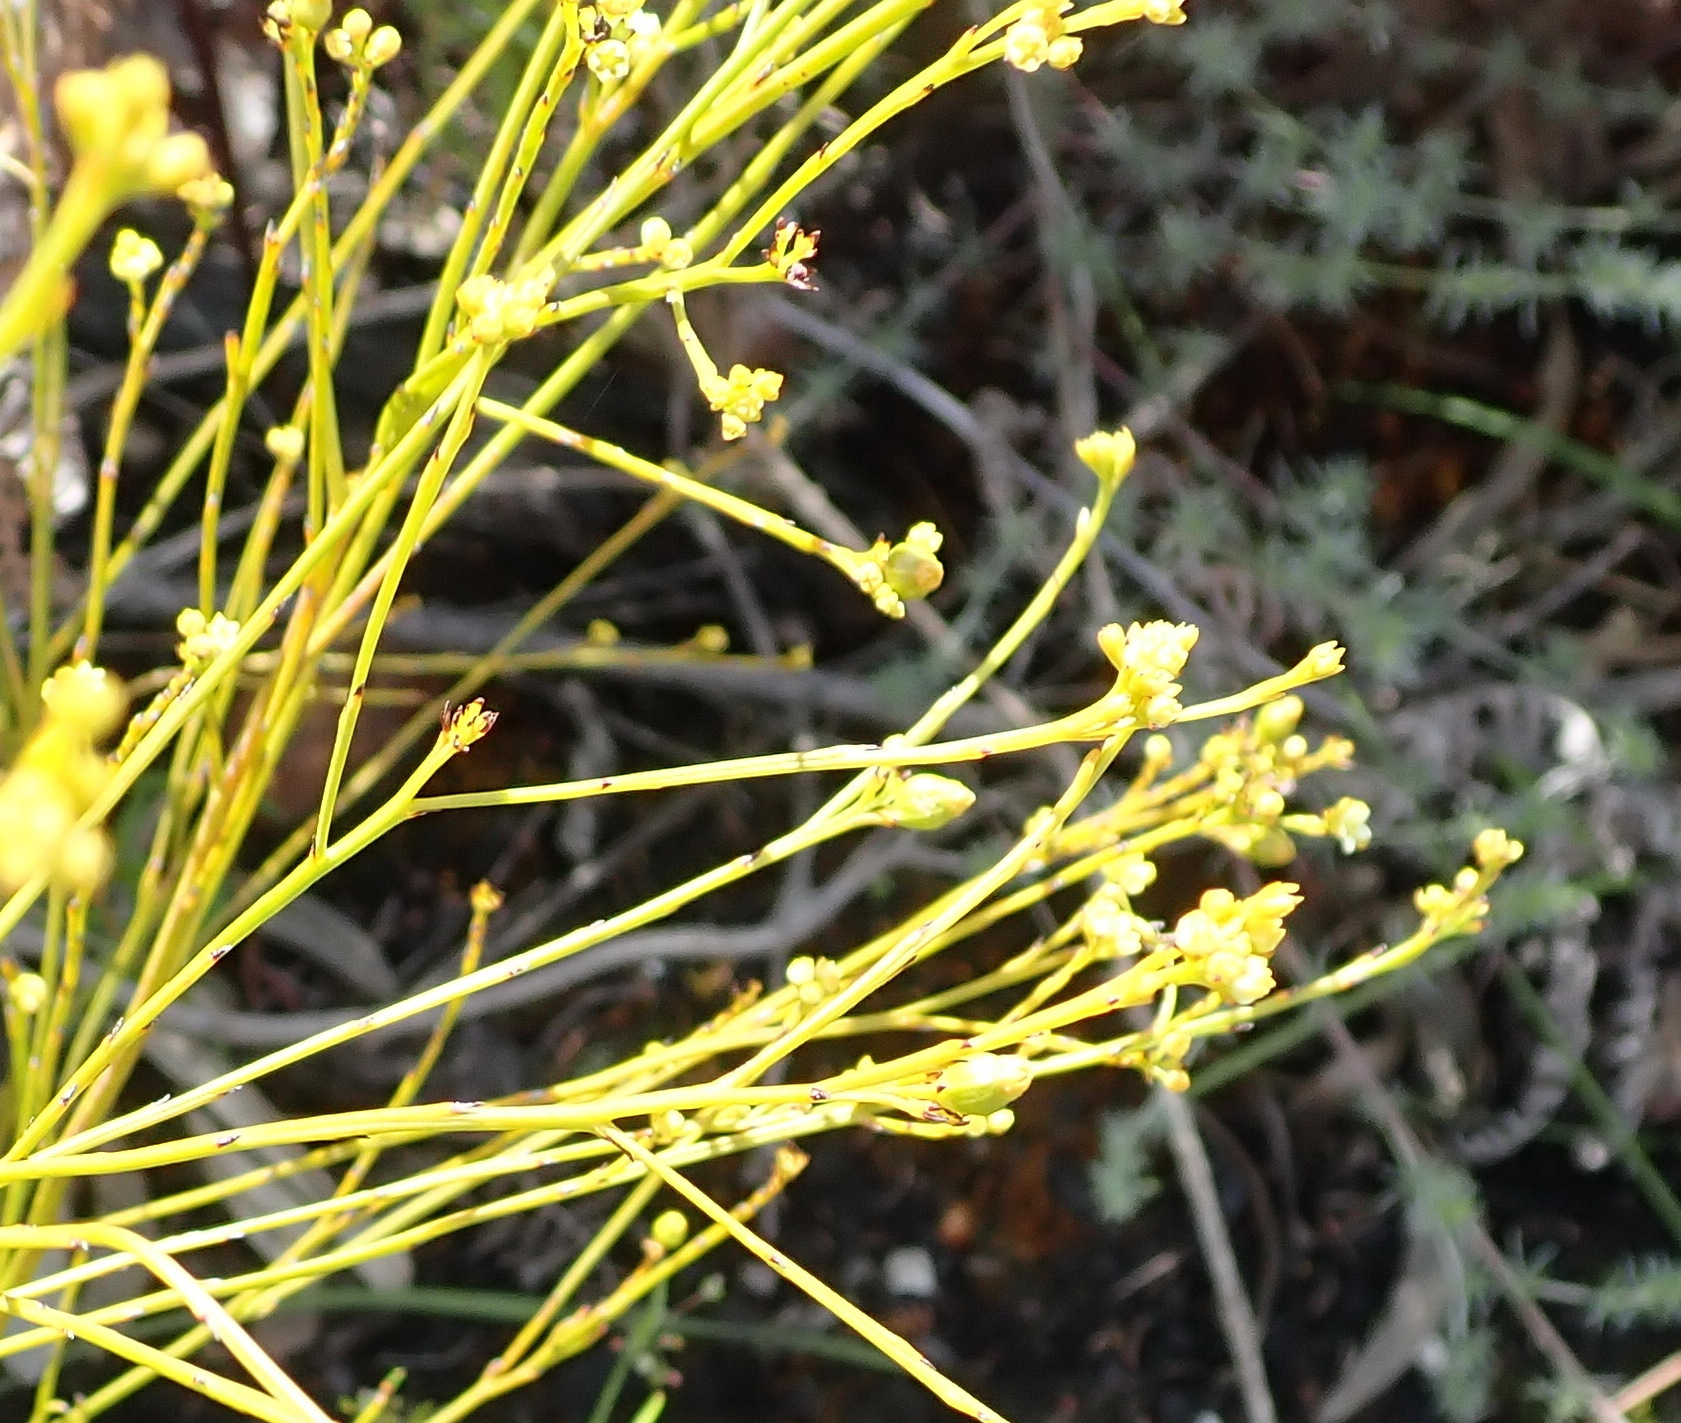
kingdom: Plantae
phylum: Tracheophyta
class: Magnoliopsida
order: Santalales
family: Thesiaceae
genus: Thesium
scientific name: Thesium virgatum
